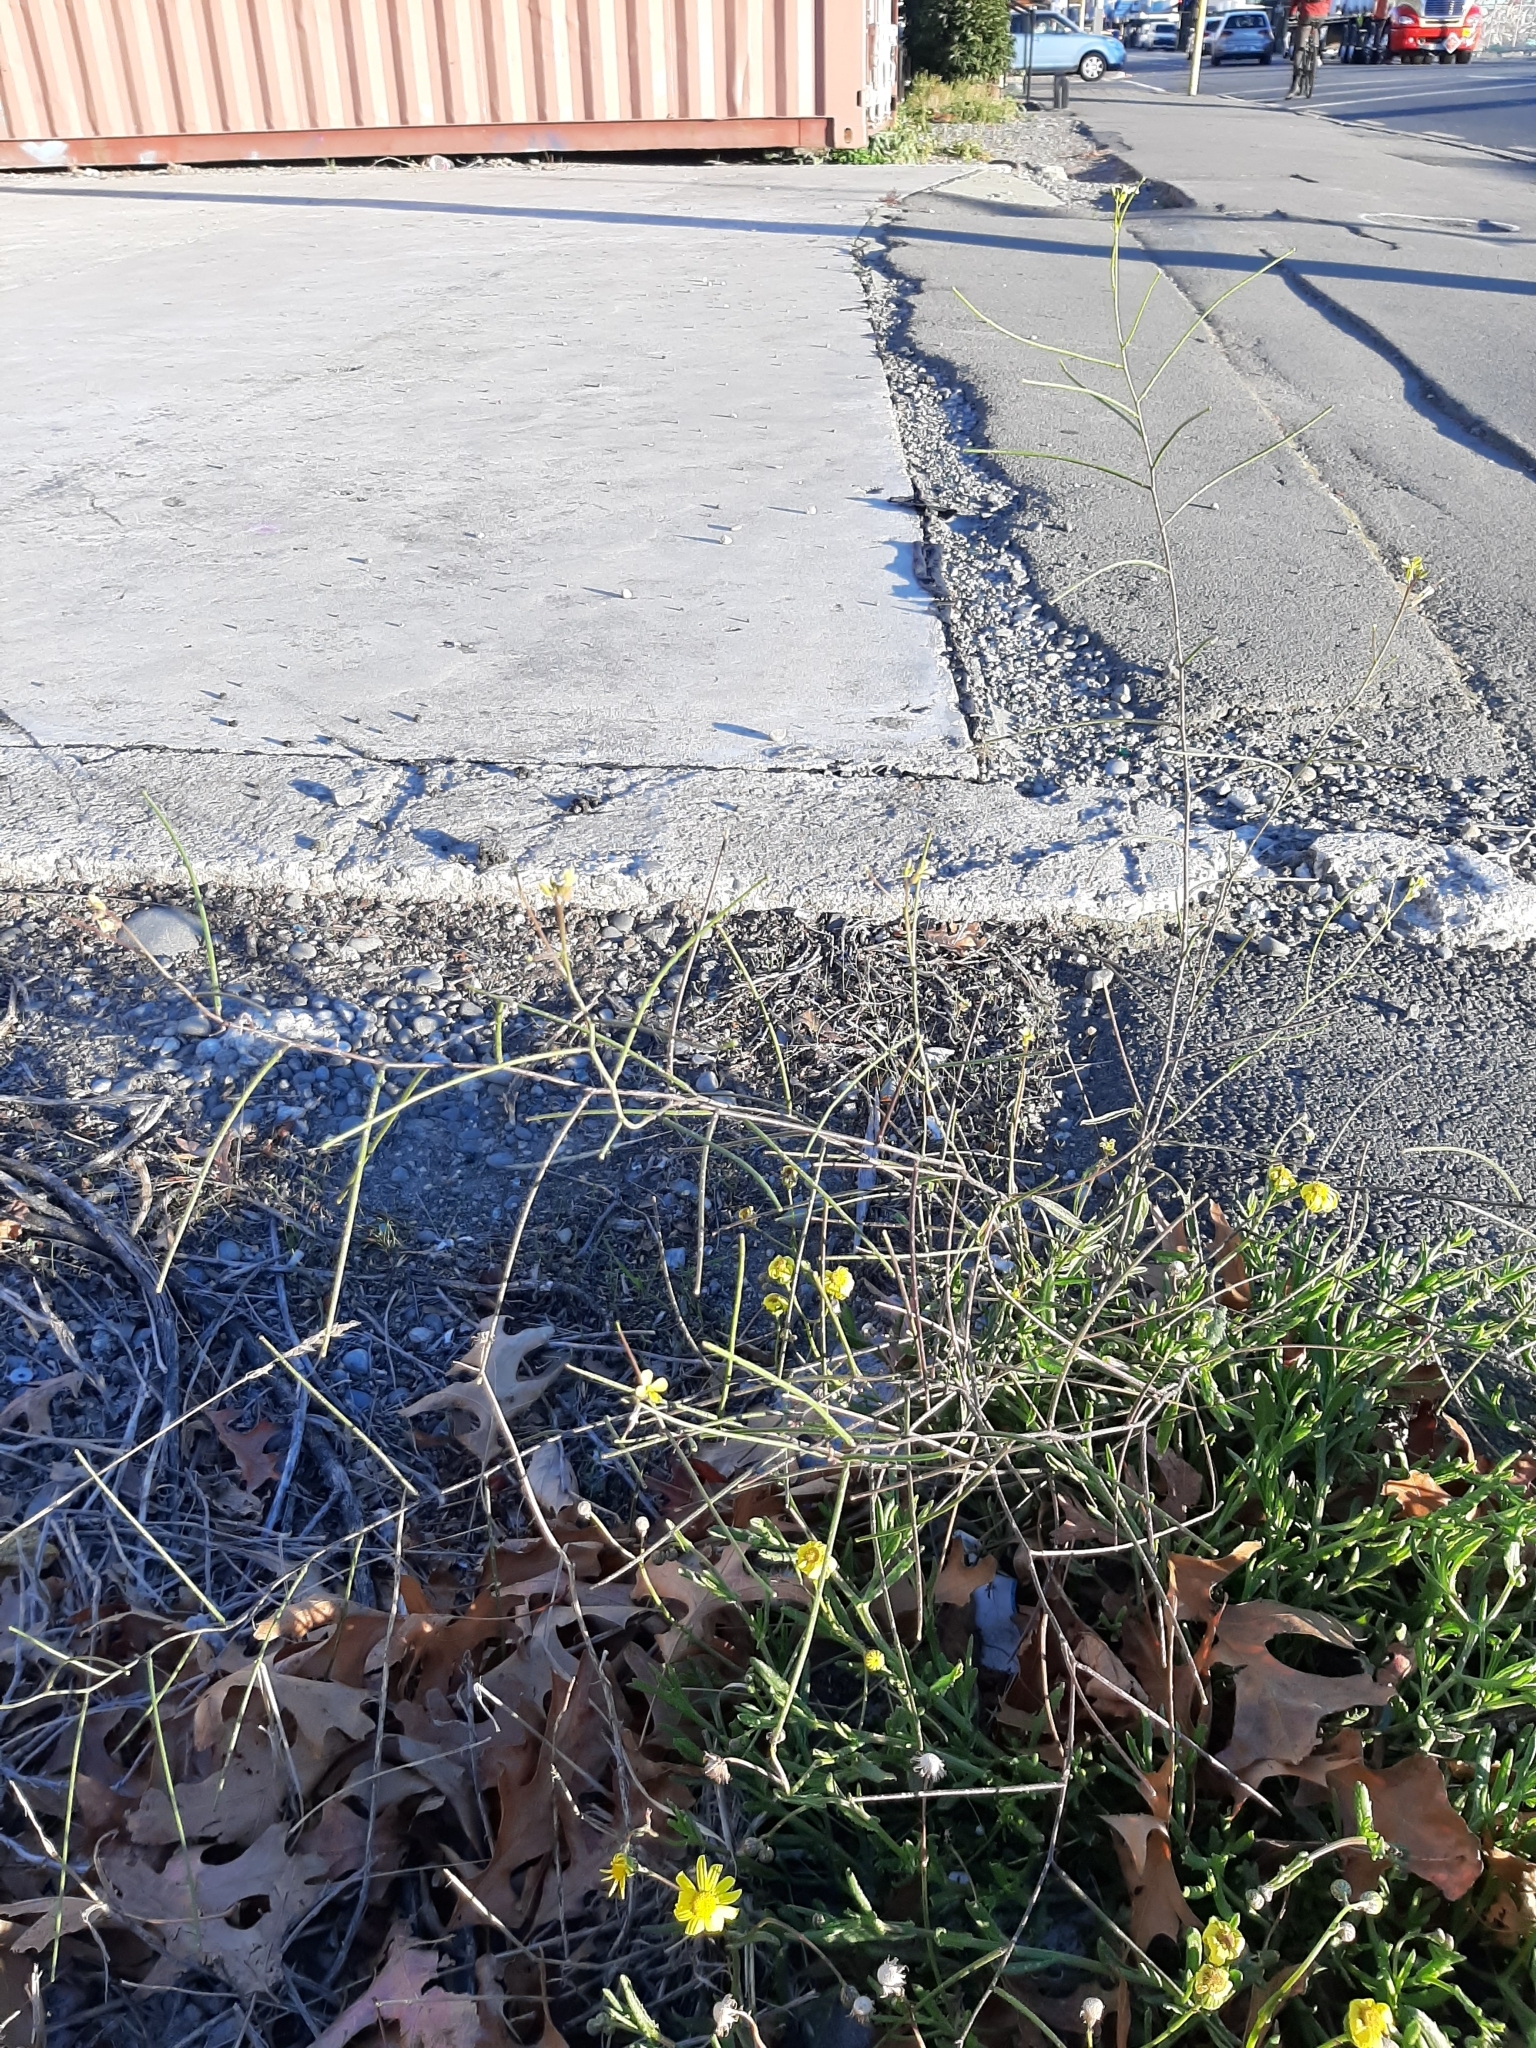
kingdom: Plantae
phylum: Tracheophyta
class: Magnoliopsida
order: Brassicales
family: Brassicaceae
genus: Sisymbrium
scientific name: Sisymbrium orientale
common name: Eastern rocket
